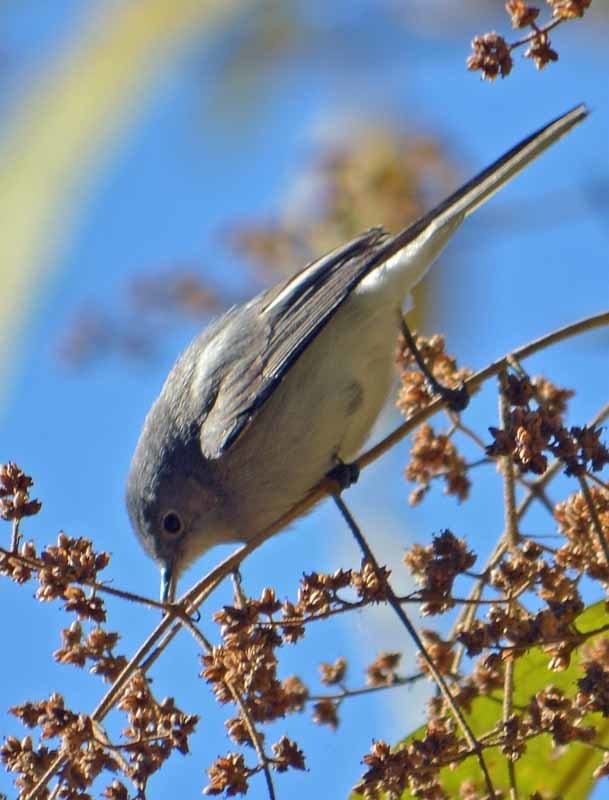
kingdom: Animalia
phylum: Chordata
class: Aves
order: Passeriformes
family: Polioptilidae
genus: Polioptila
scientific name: Polioptila caerulea
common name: Blue-gray gnatcatcher
